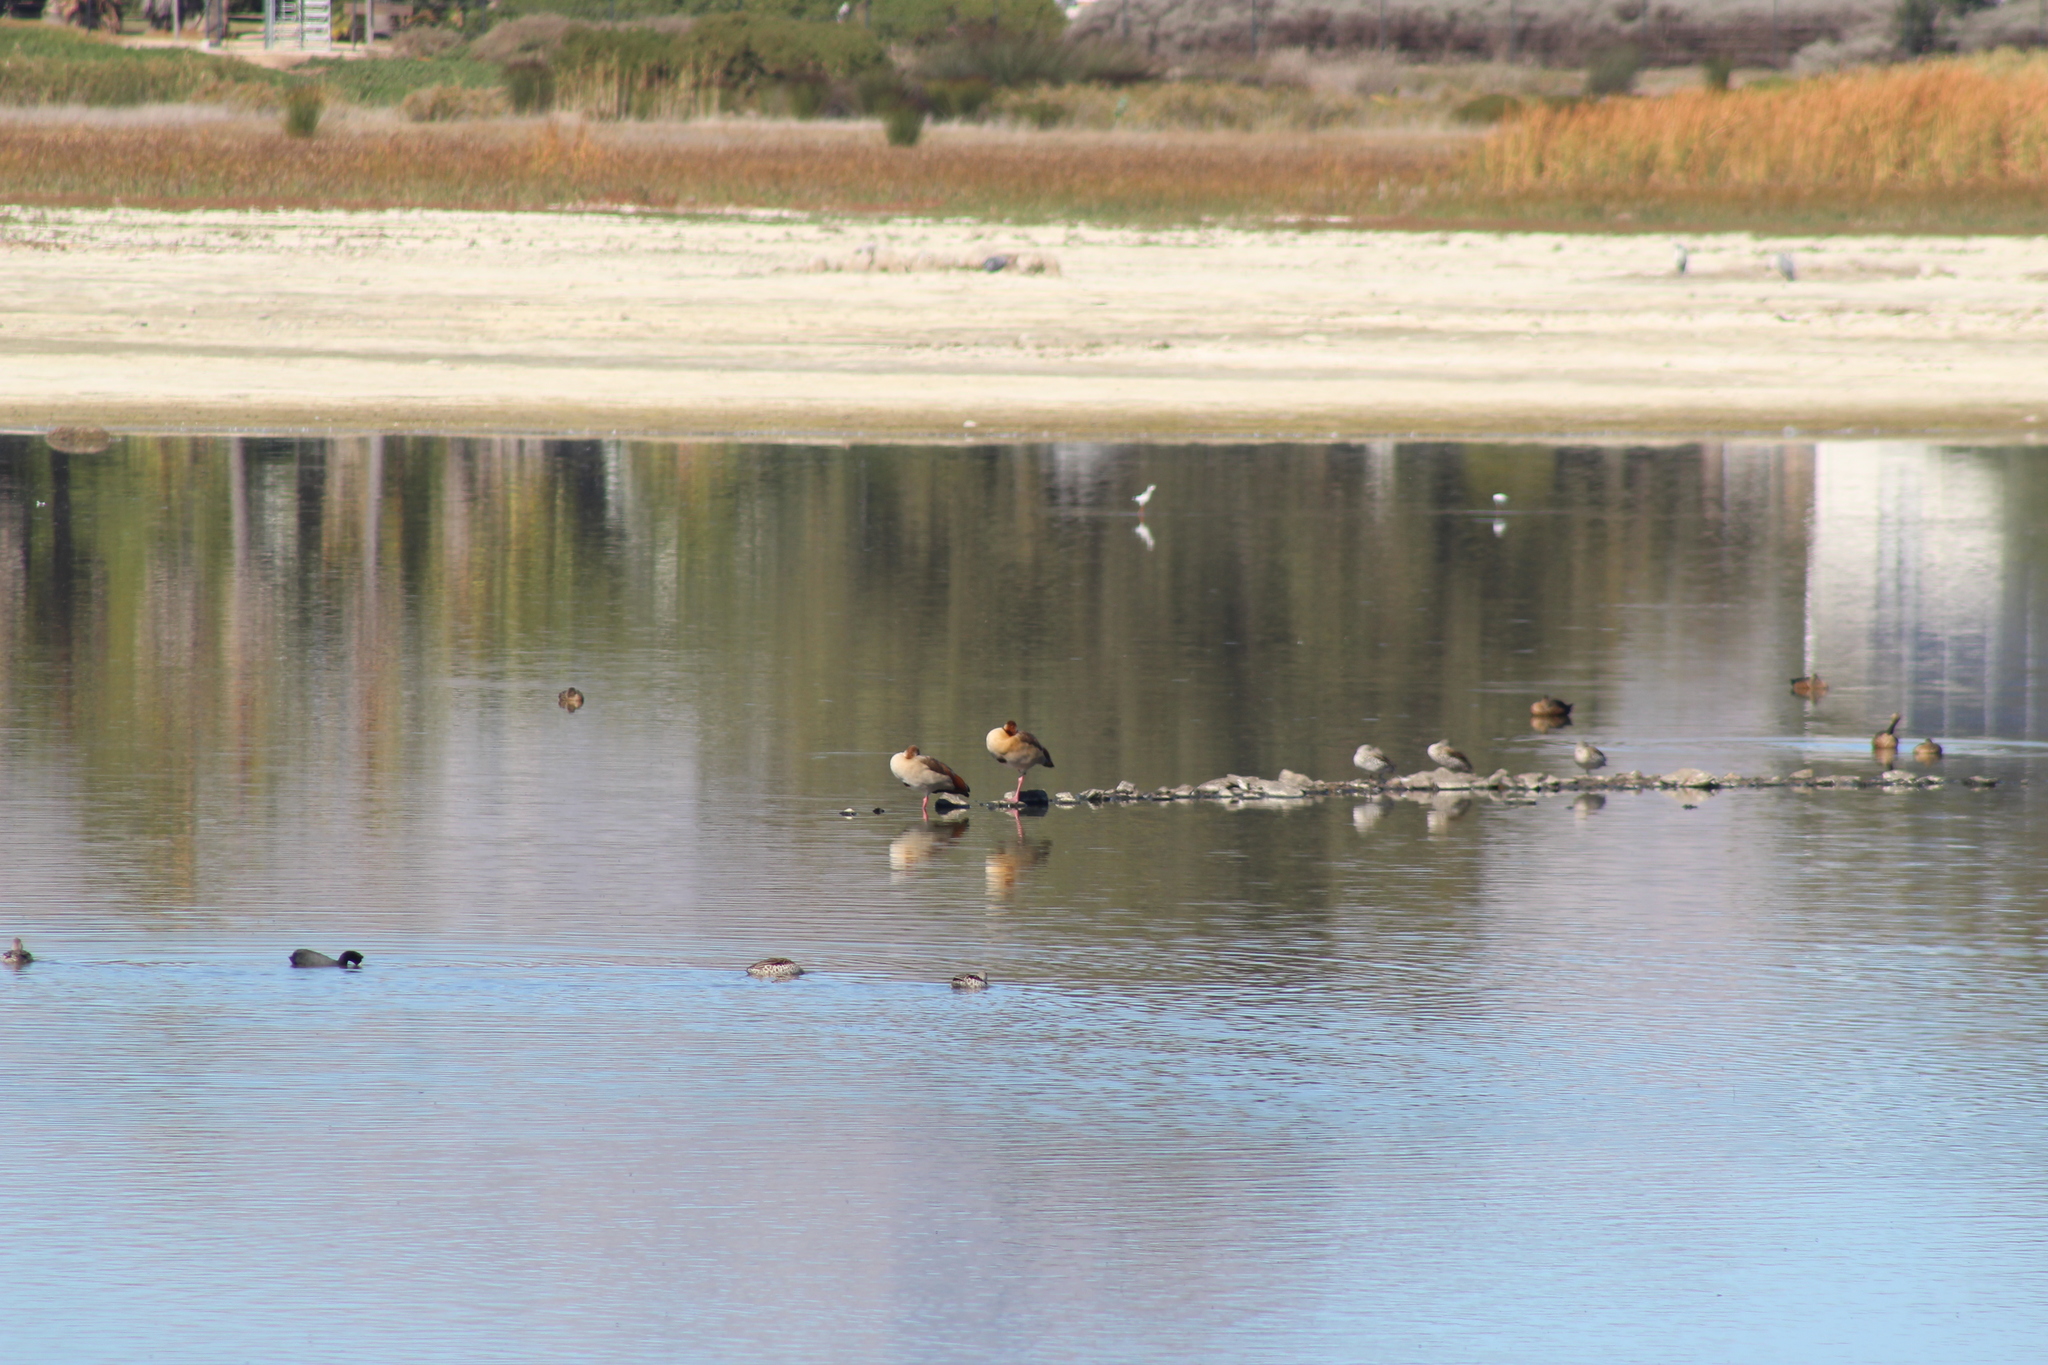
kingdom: Animalia
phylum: Chordata
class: Aves
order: Anseriformes
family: Anatidae
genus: Alopochen
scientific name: Alopochen aegyptiaca
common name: Egyptian goose
